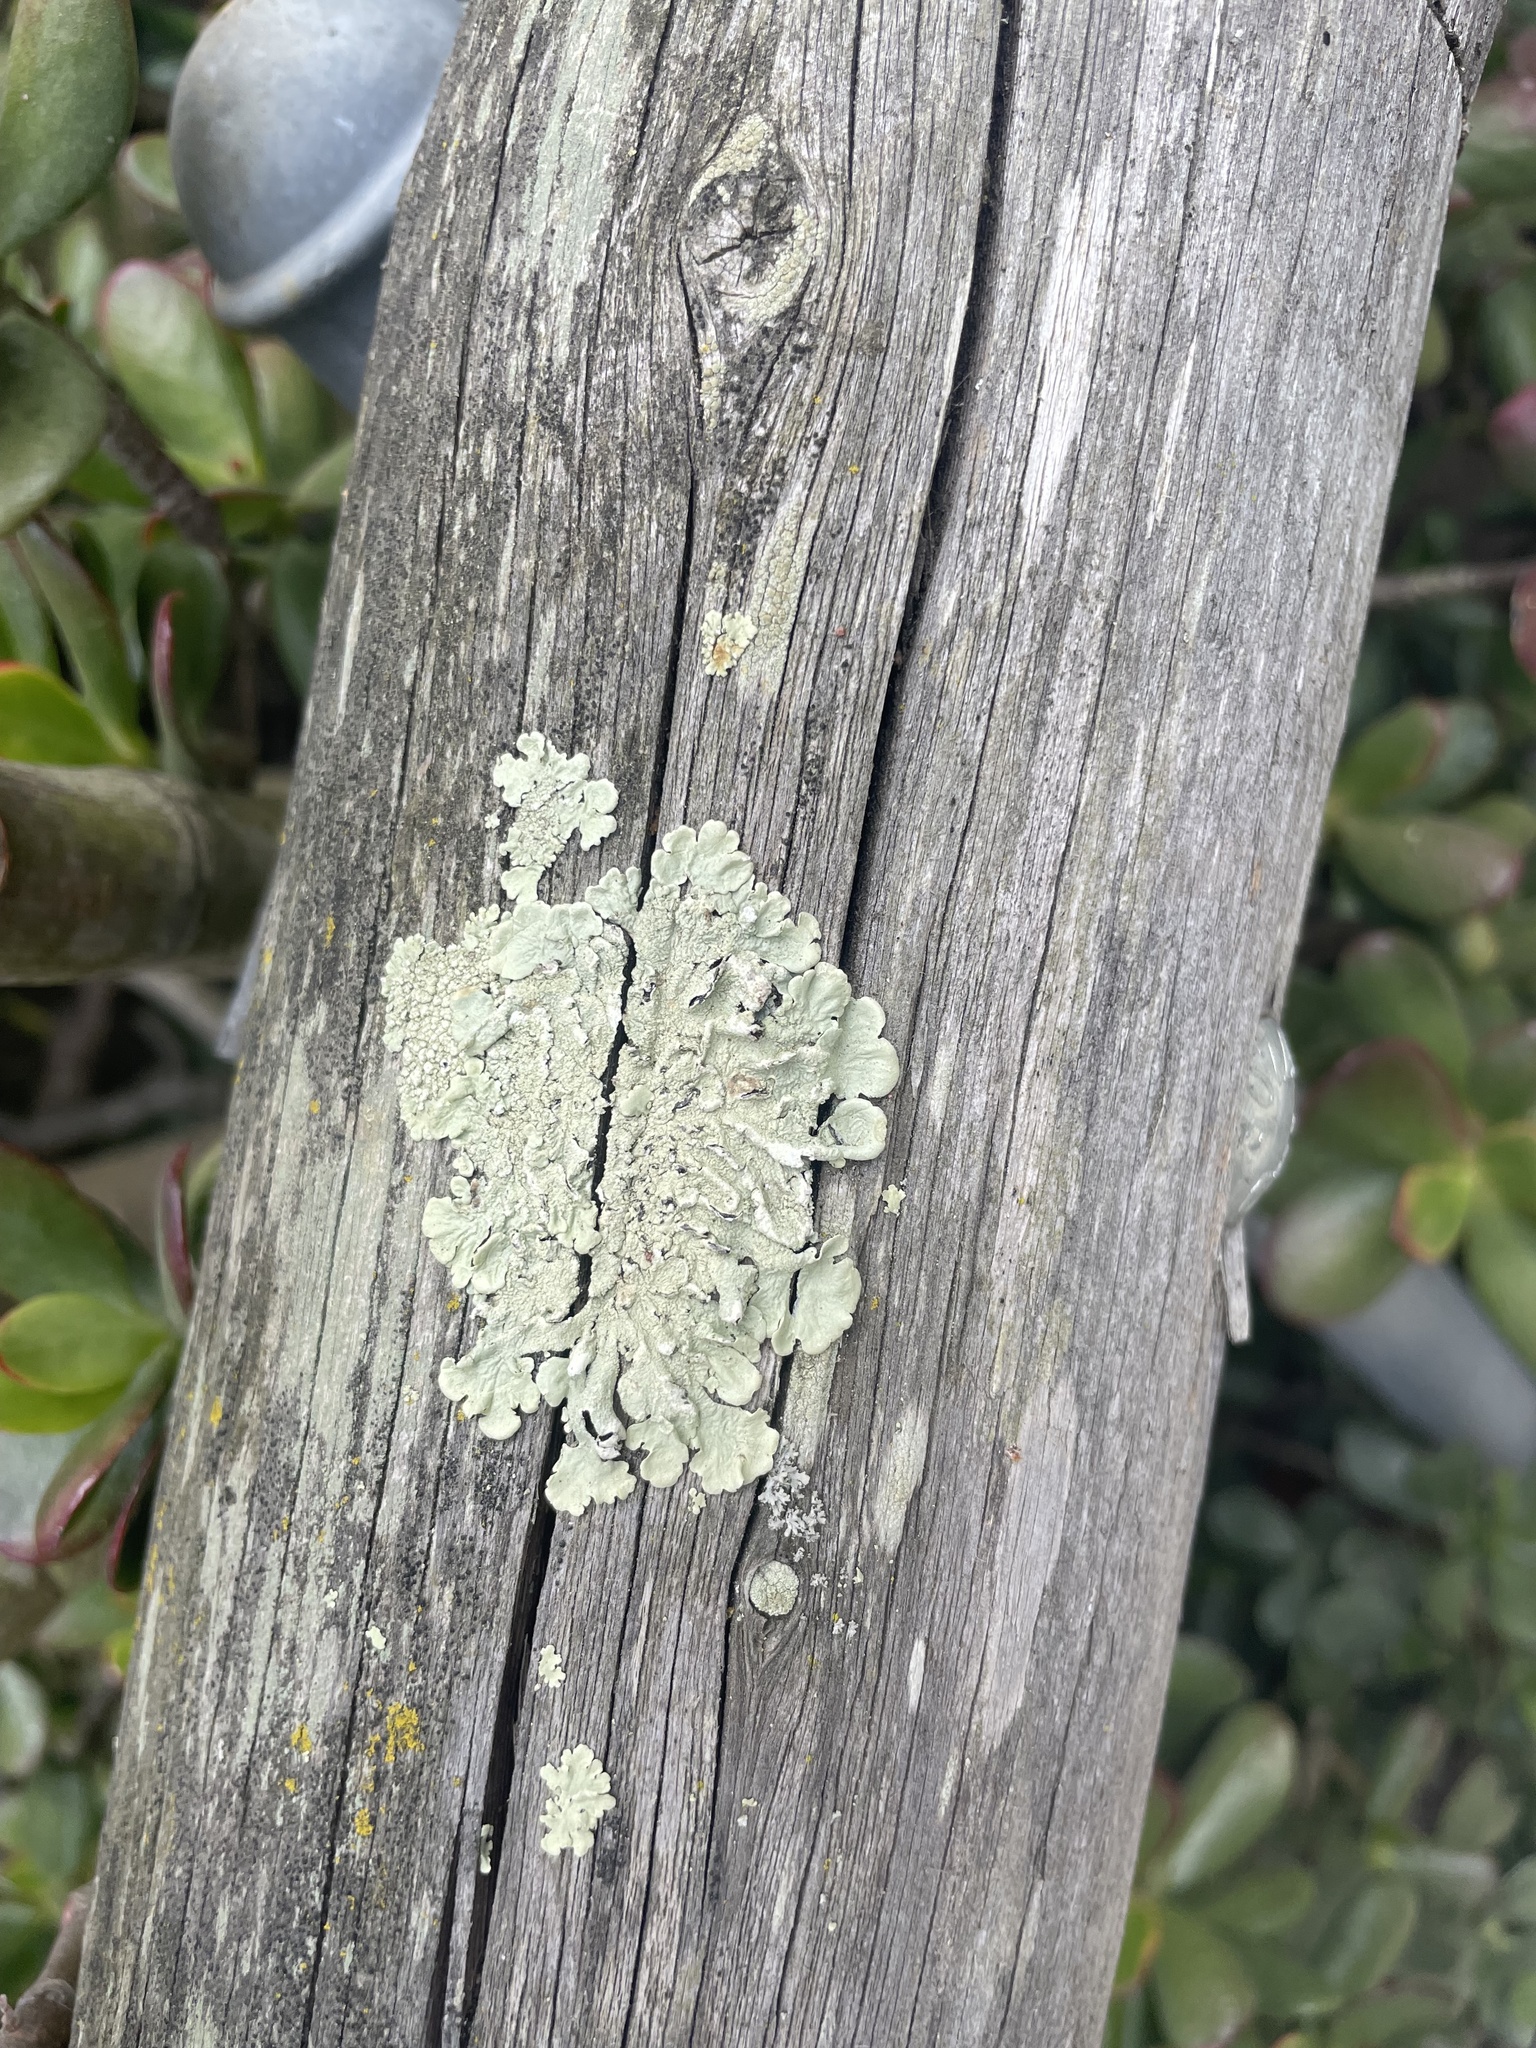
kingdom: Fungi
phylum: Ascomycota
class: Lecanoromycetes
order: Lecanorales
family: Parmeliaceae
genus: Flavoparmelia
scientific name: Flavoparmelia caperata
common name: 40-mile per hour lichen
